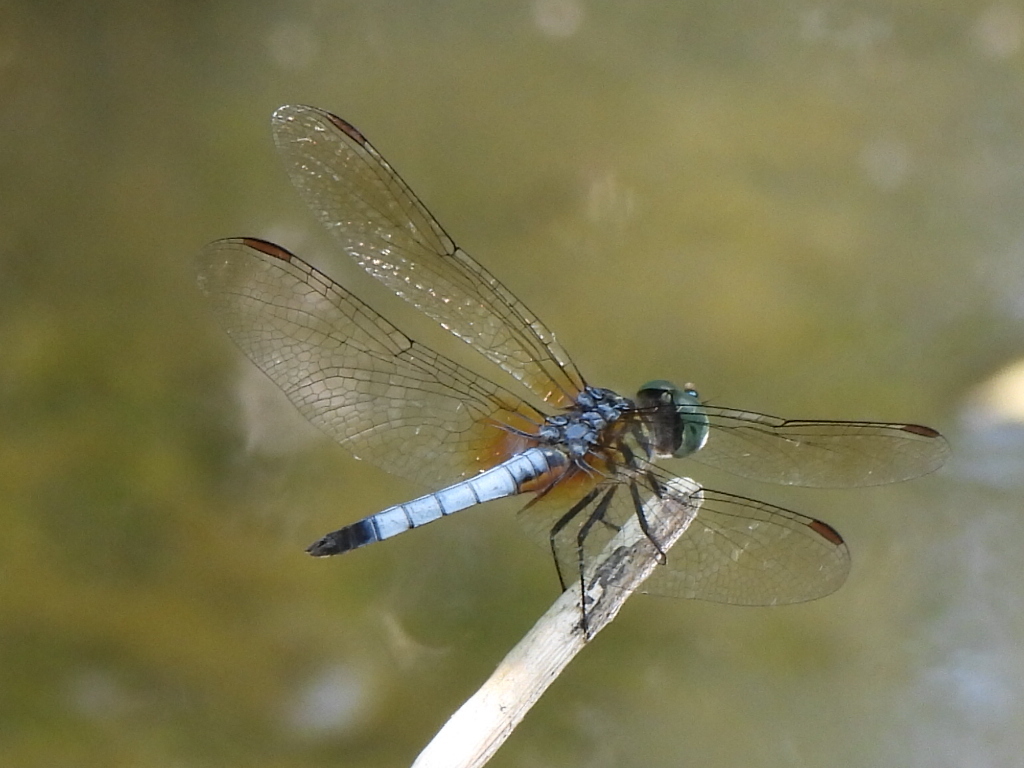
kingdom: Animalia
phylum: Arthropoda
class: Insecta
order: Odonata
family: Libellulidae
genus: Pachydiplax
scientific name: Pachydiplax longipennis
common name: Blue dasher
